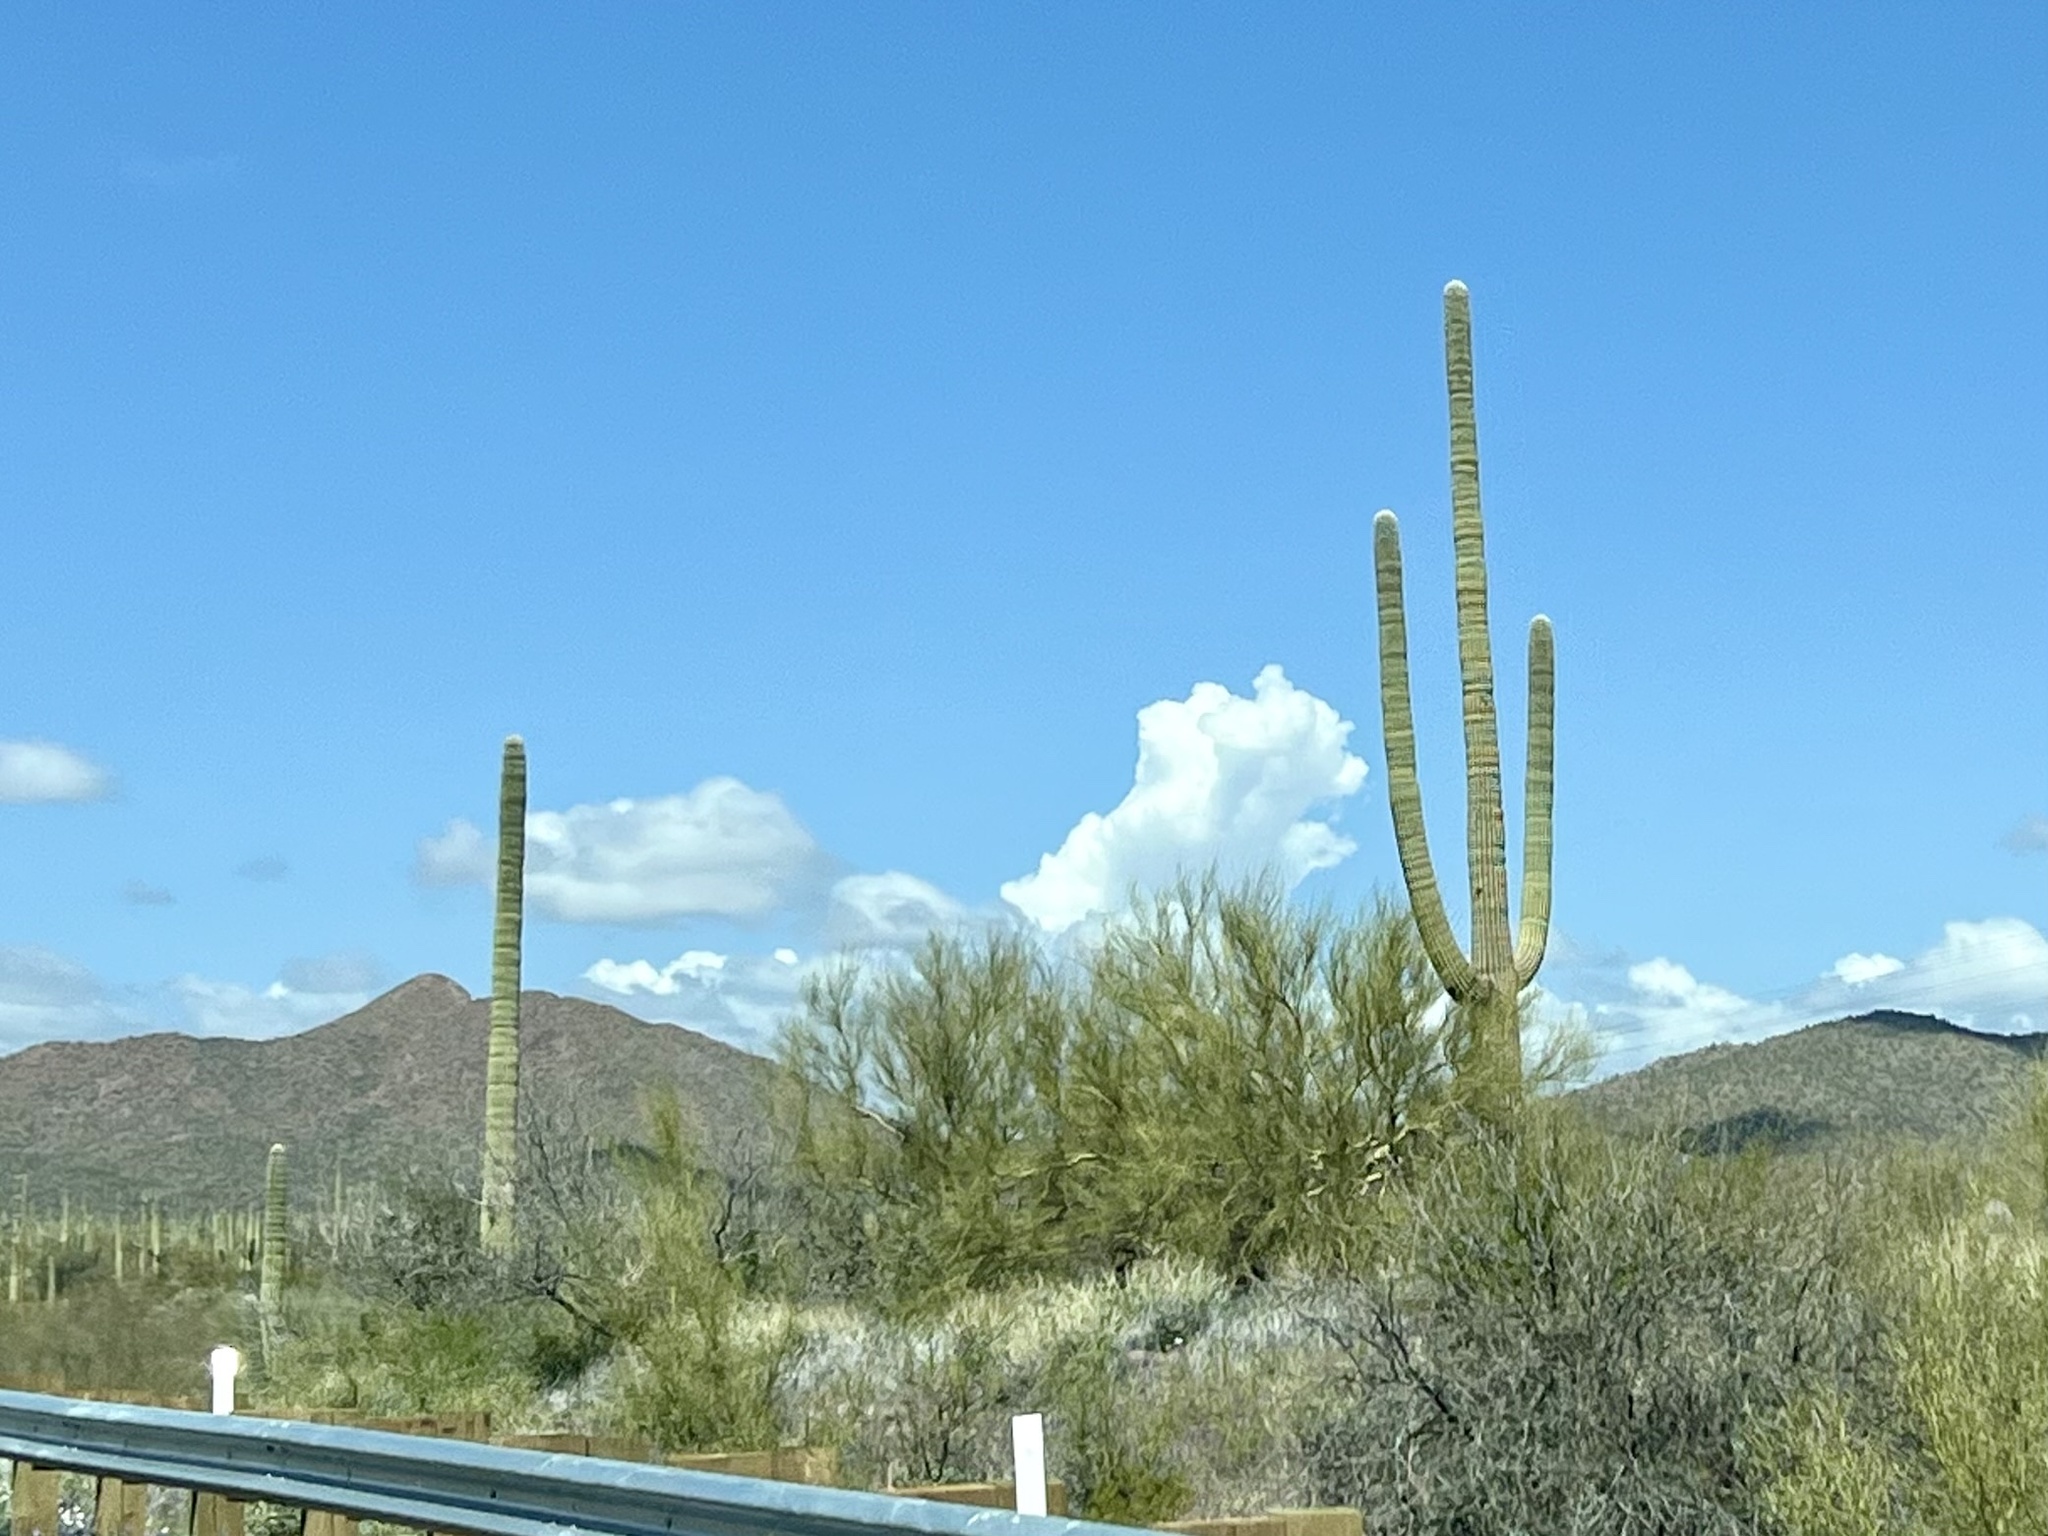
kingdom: Plantae
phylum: Tracheophyta
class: Magnoliopsida
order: Caryophyllales
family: Cactaceae
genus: Carnegiea
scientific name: Carnegiea gigantea
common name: Saguaro
